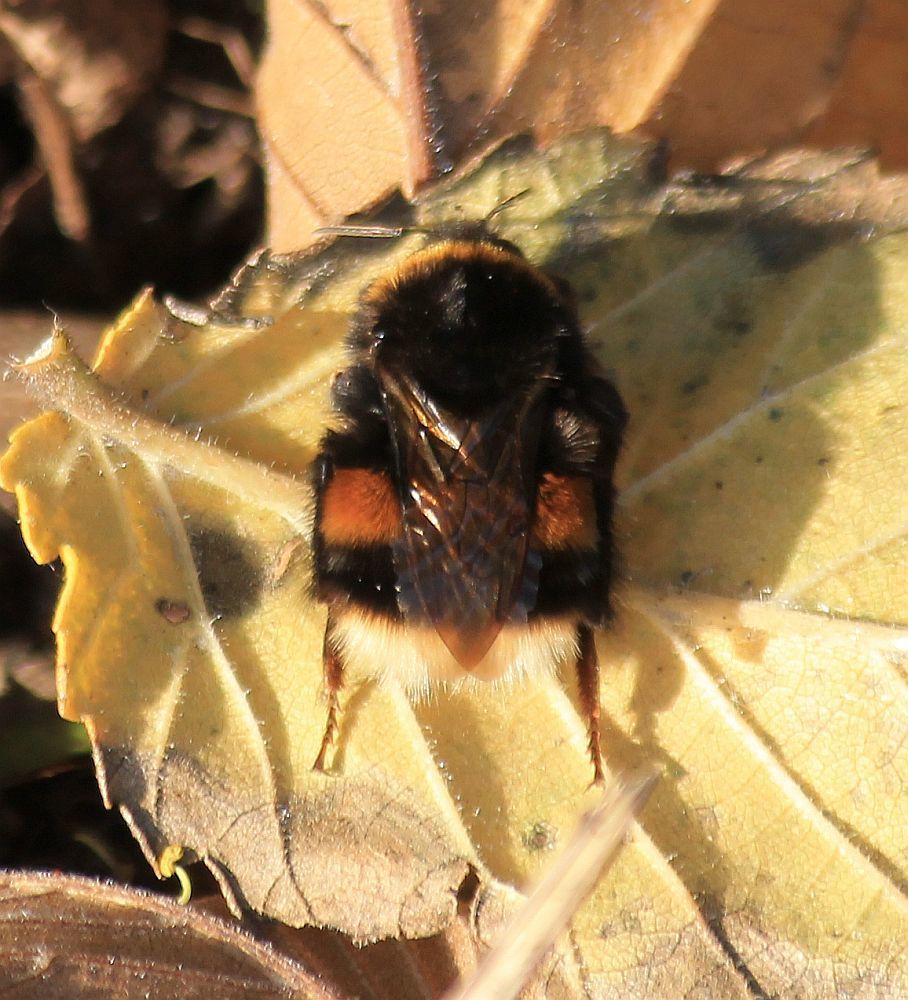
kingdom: Animalia
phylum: Arthropoda
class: Insecta
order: Hymenoptera
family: Apidae
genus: Bombus
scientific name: Bombus terrestris
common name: Buff-tailed bumblebee
